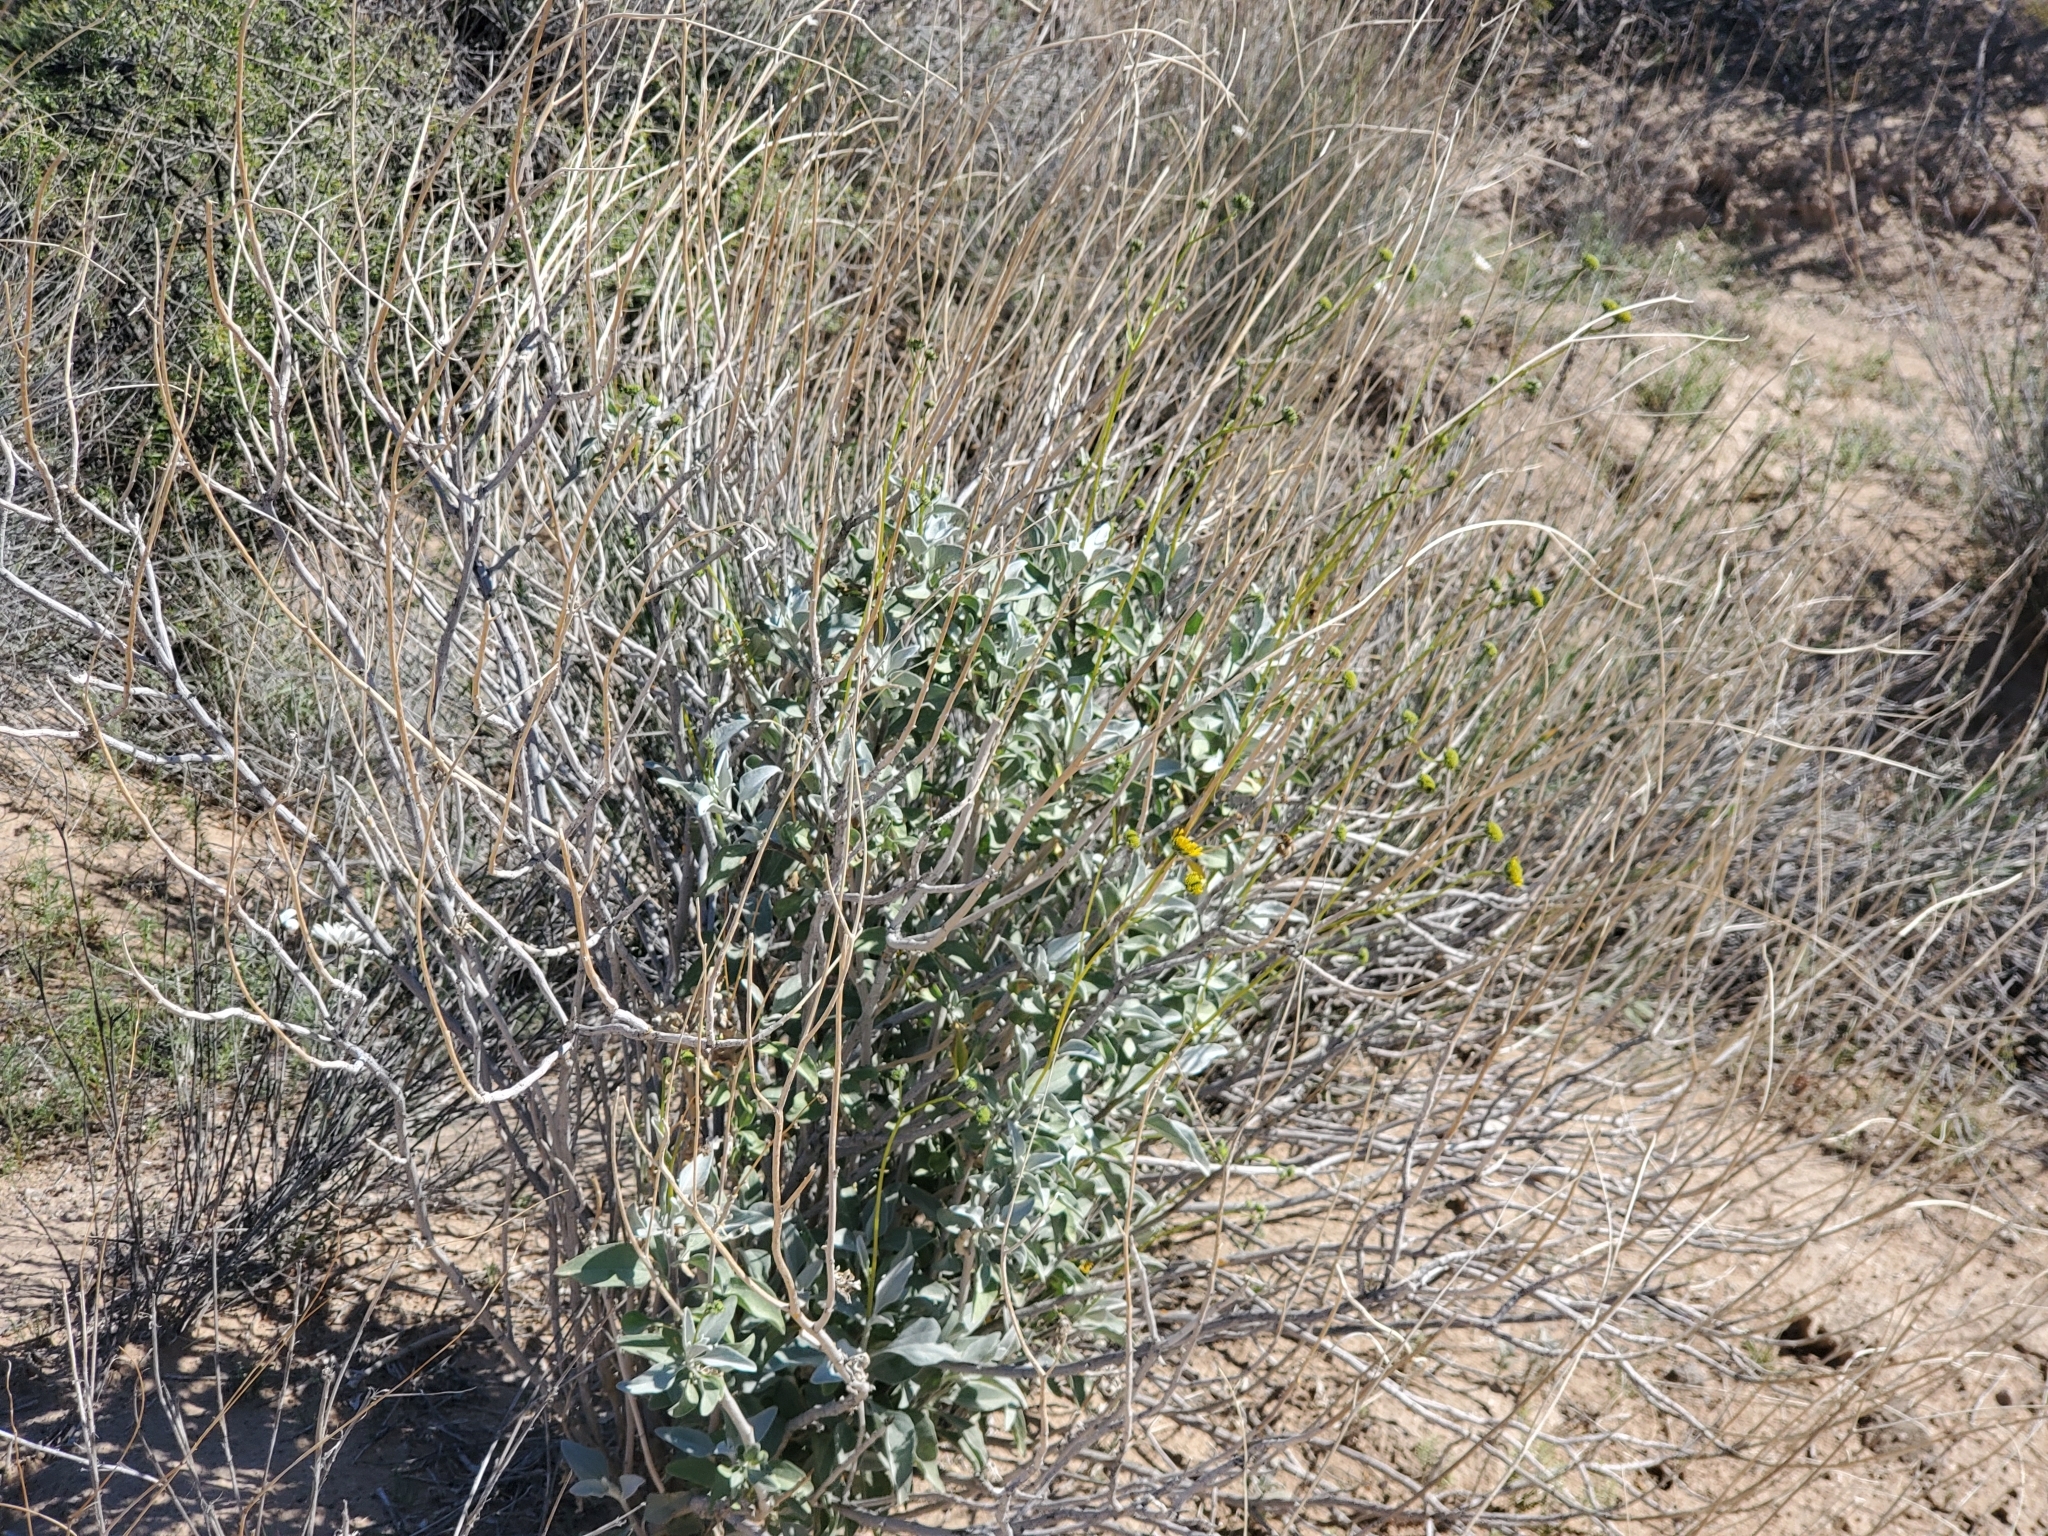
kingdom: Plantae
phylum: Tracheophyta
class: Magnoliopsida
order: Asterales
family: Asteraceae
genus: Encelia
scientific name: Encelia farinosa
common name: Brittlebush
